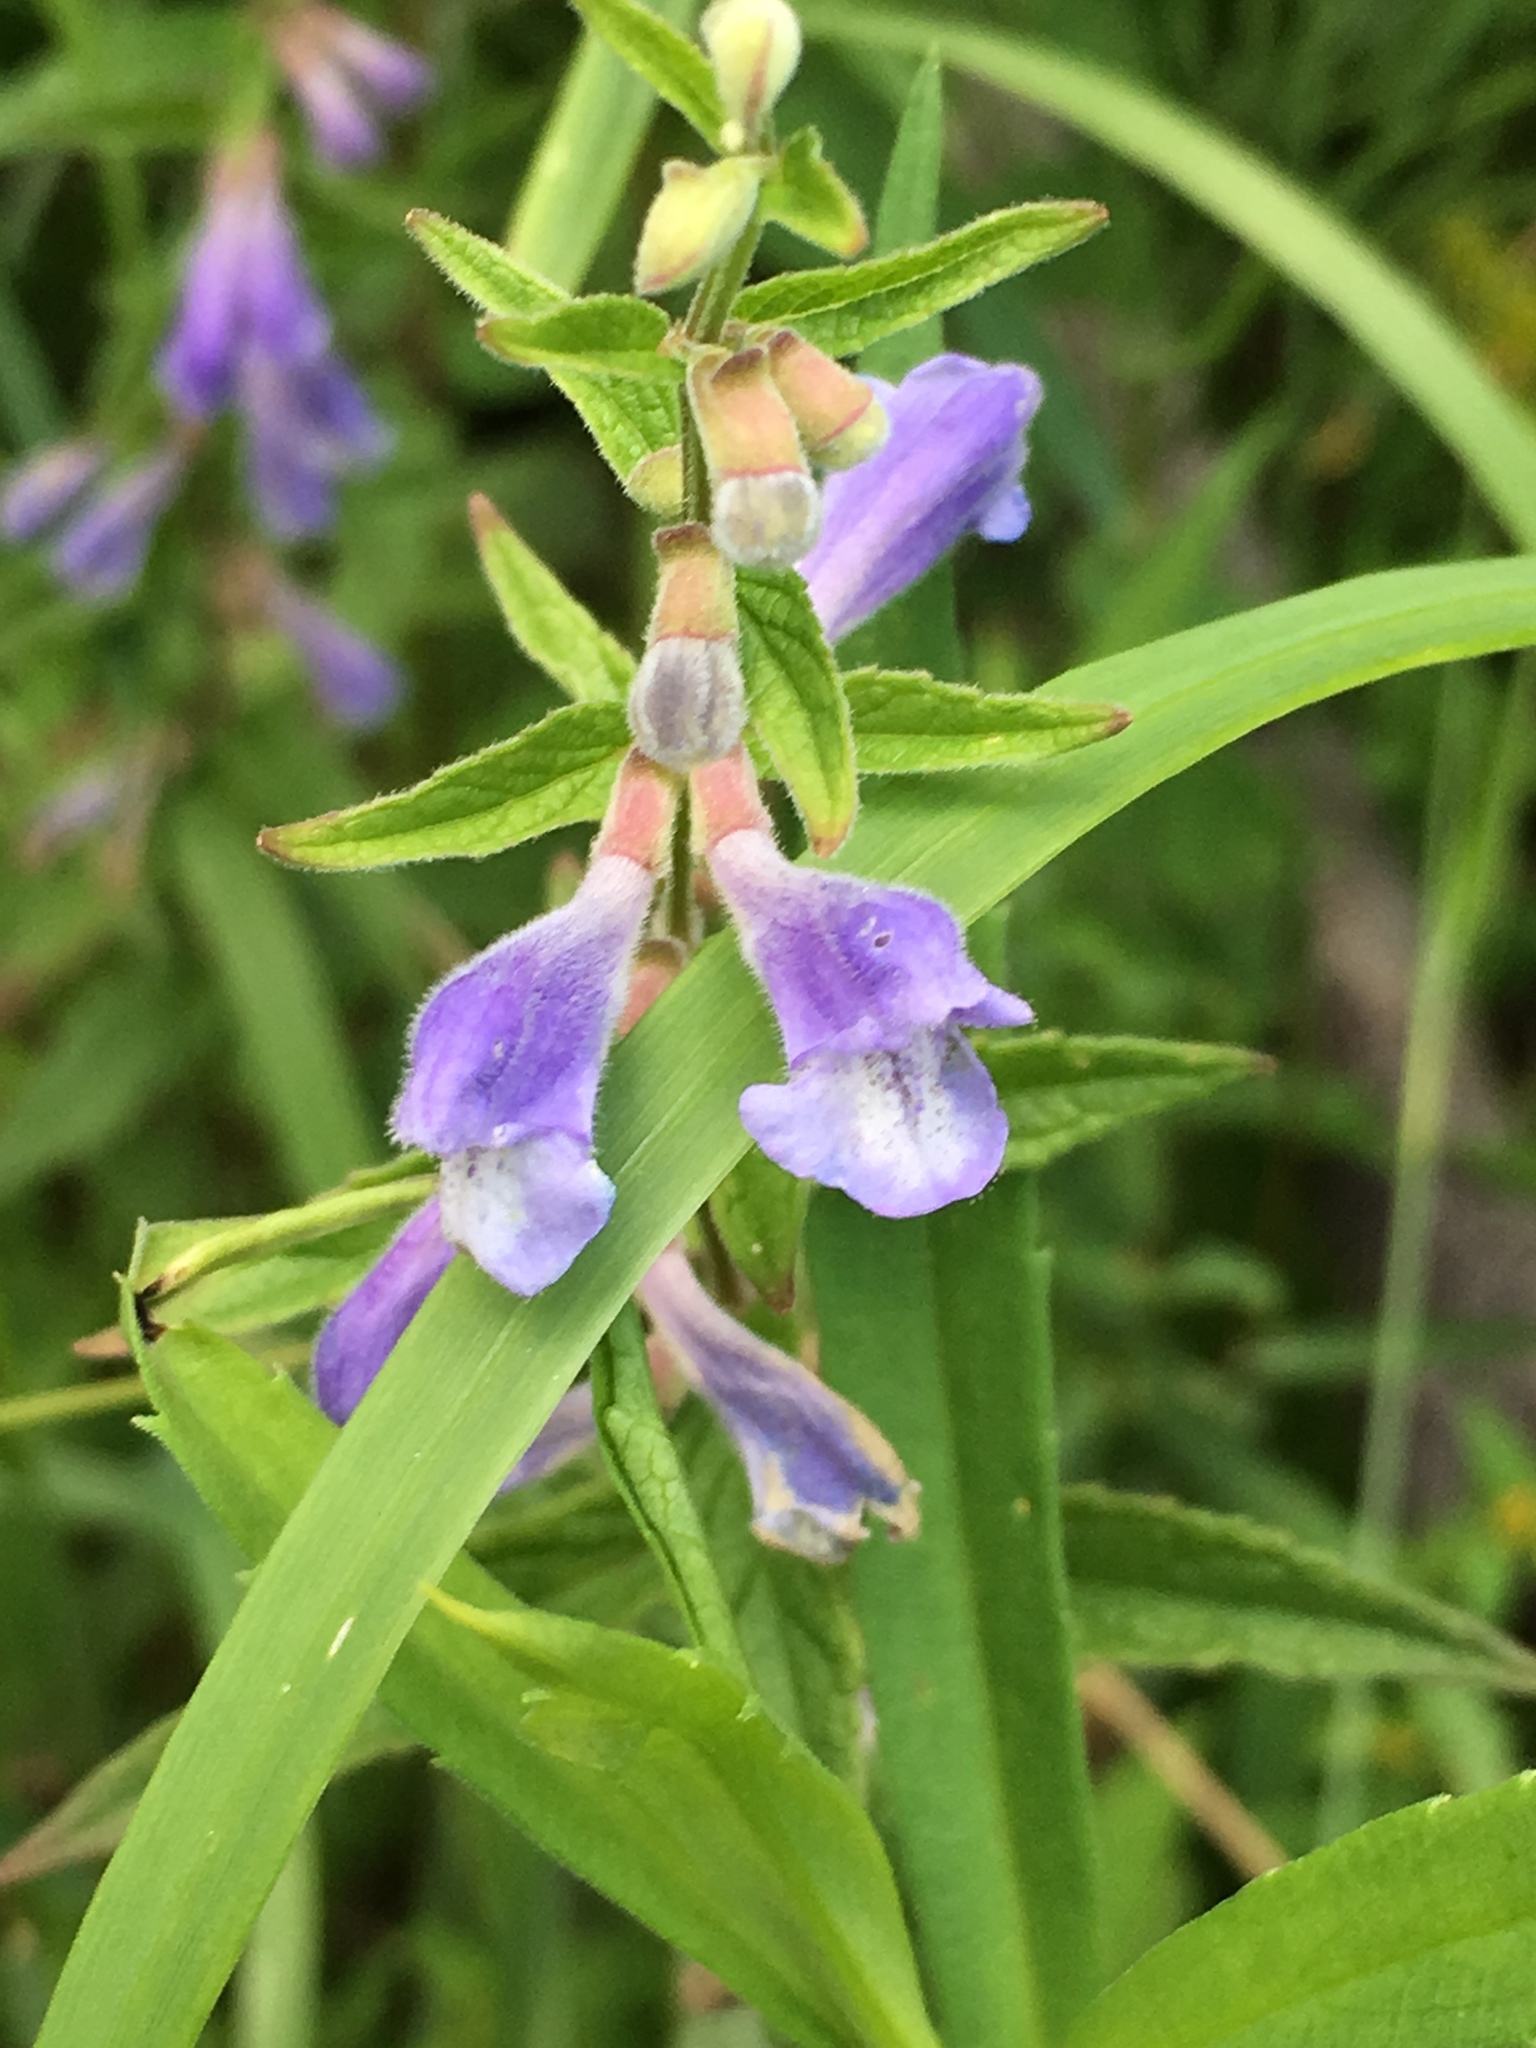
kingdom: Plantae
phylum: Tracheophyta
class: Magnoliopsida
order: Lamiales
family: Lamiaceae
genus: Scutellaria
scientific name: Scutellaria galericulata
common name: Skullcap
